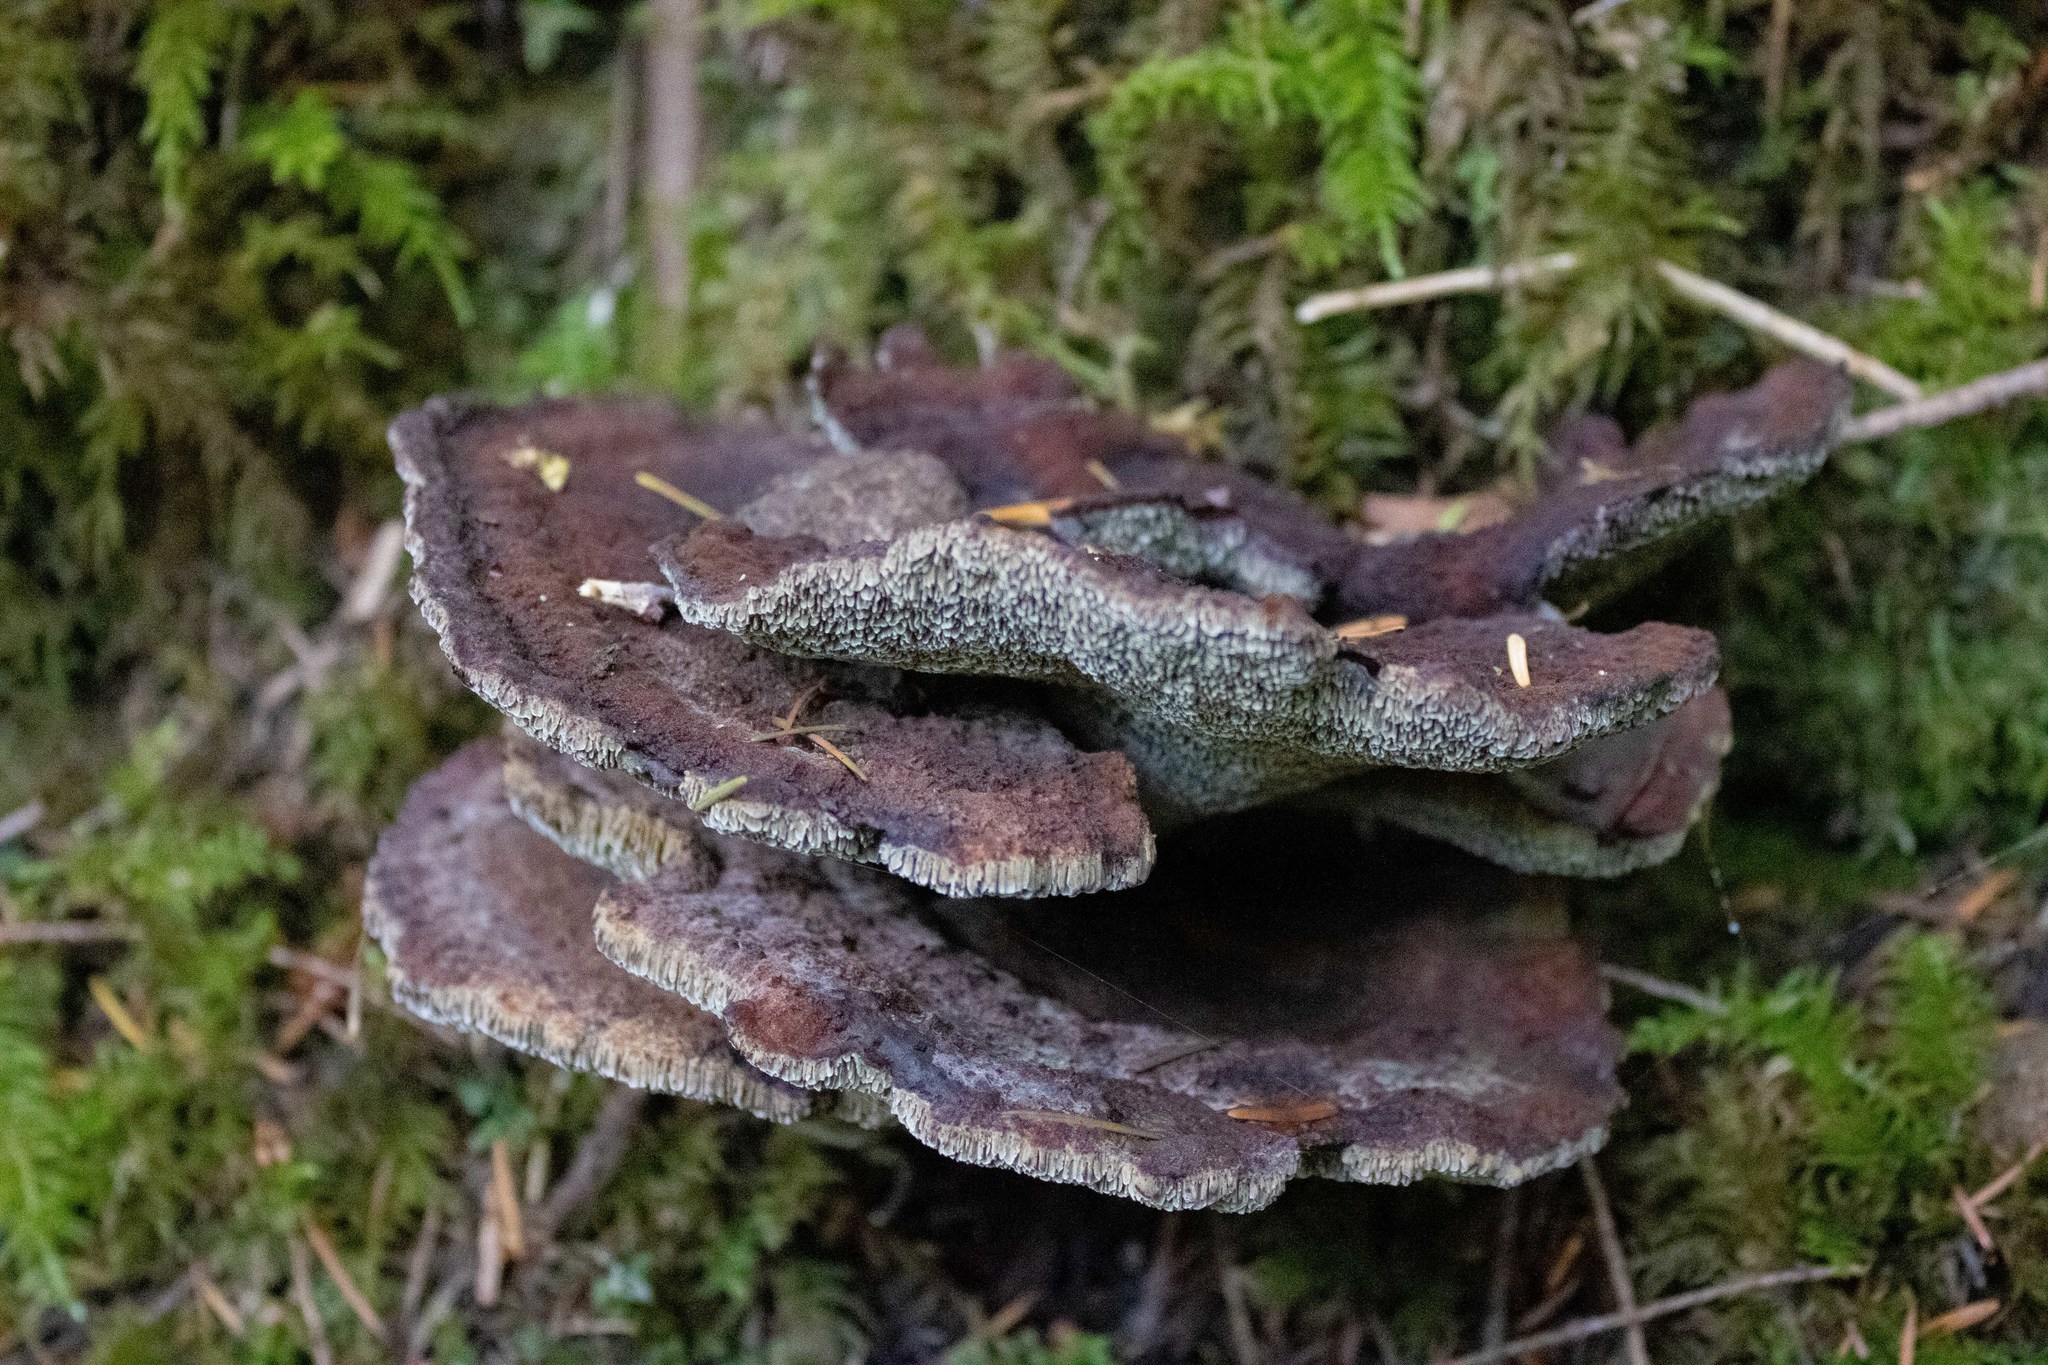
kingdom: Fungi
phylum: Basidiomycota
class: Agaricomycetes
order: Polyporales
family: Laetiporaceae
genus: Phaeolus
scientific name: Phaeolus schweinitzii
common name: Dyer's mazegill
